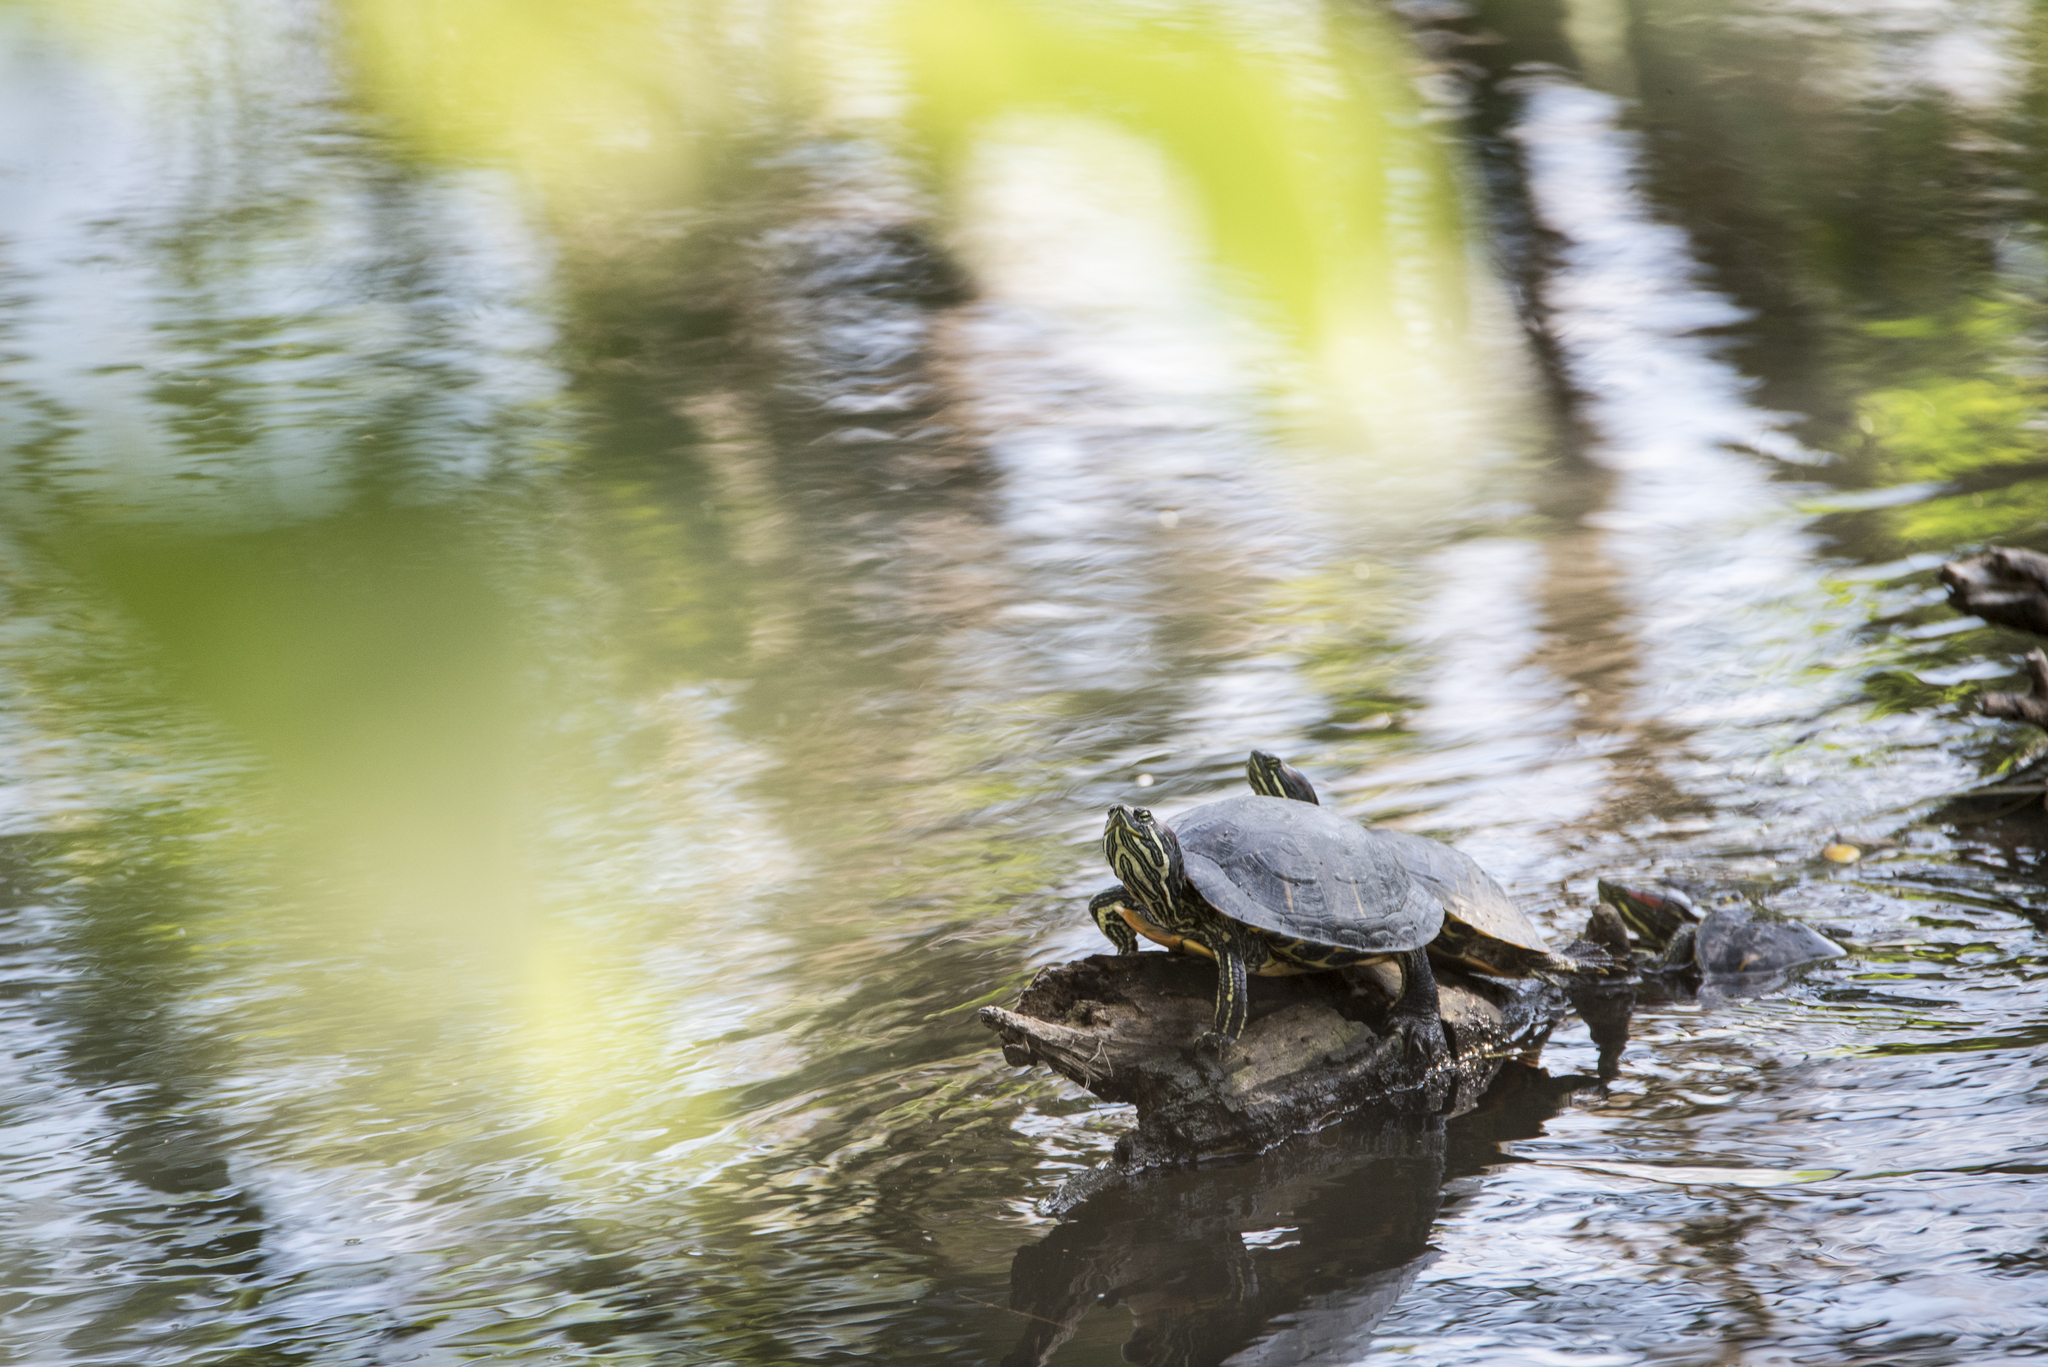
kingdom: Animalia
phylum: Chordata
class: Testudines
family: Emydidae
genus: Trachemys
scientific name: Trachemys scripta
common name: Slider
